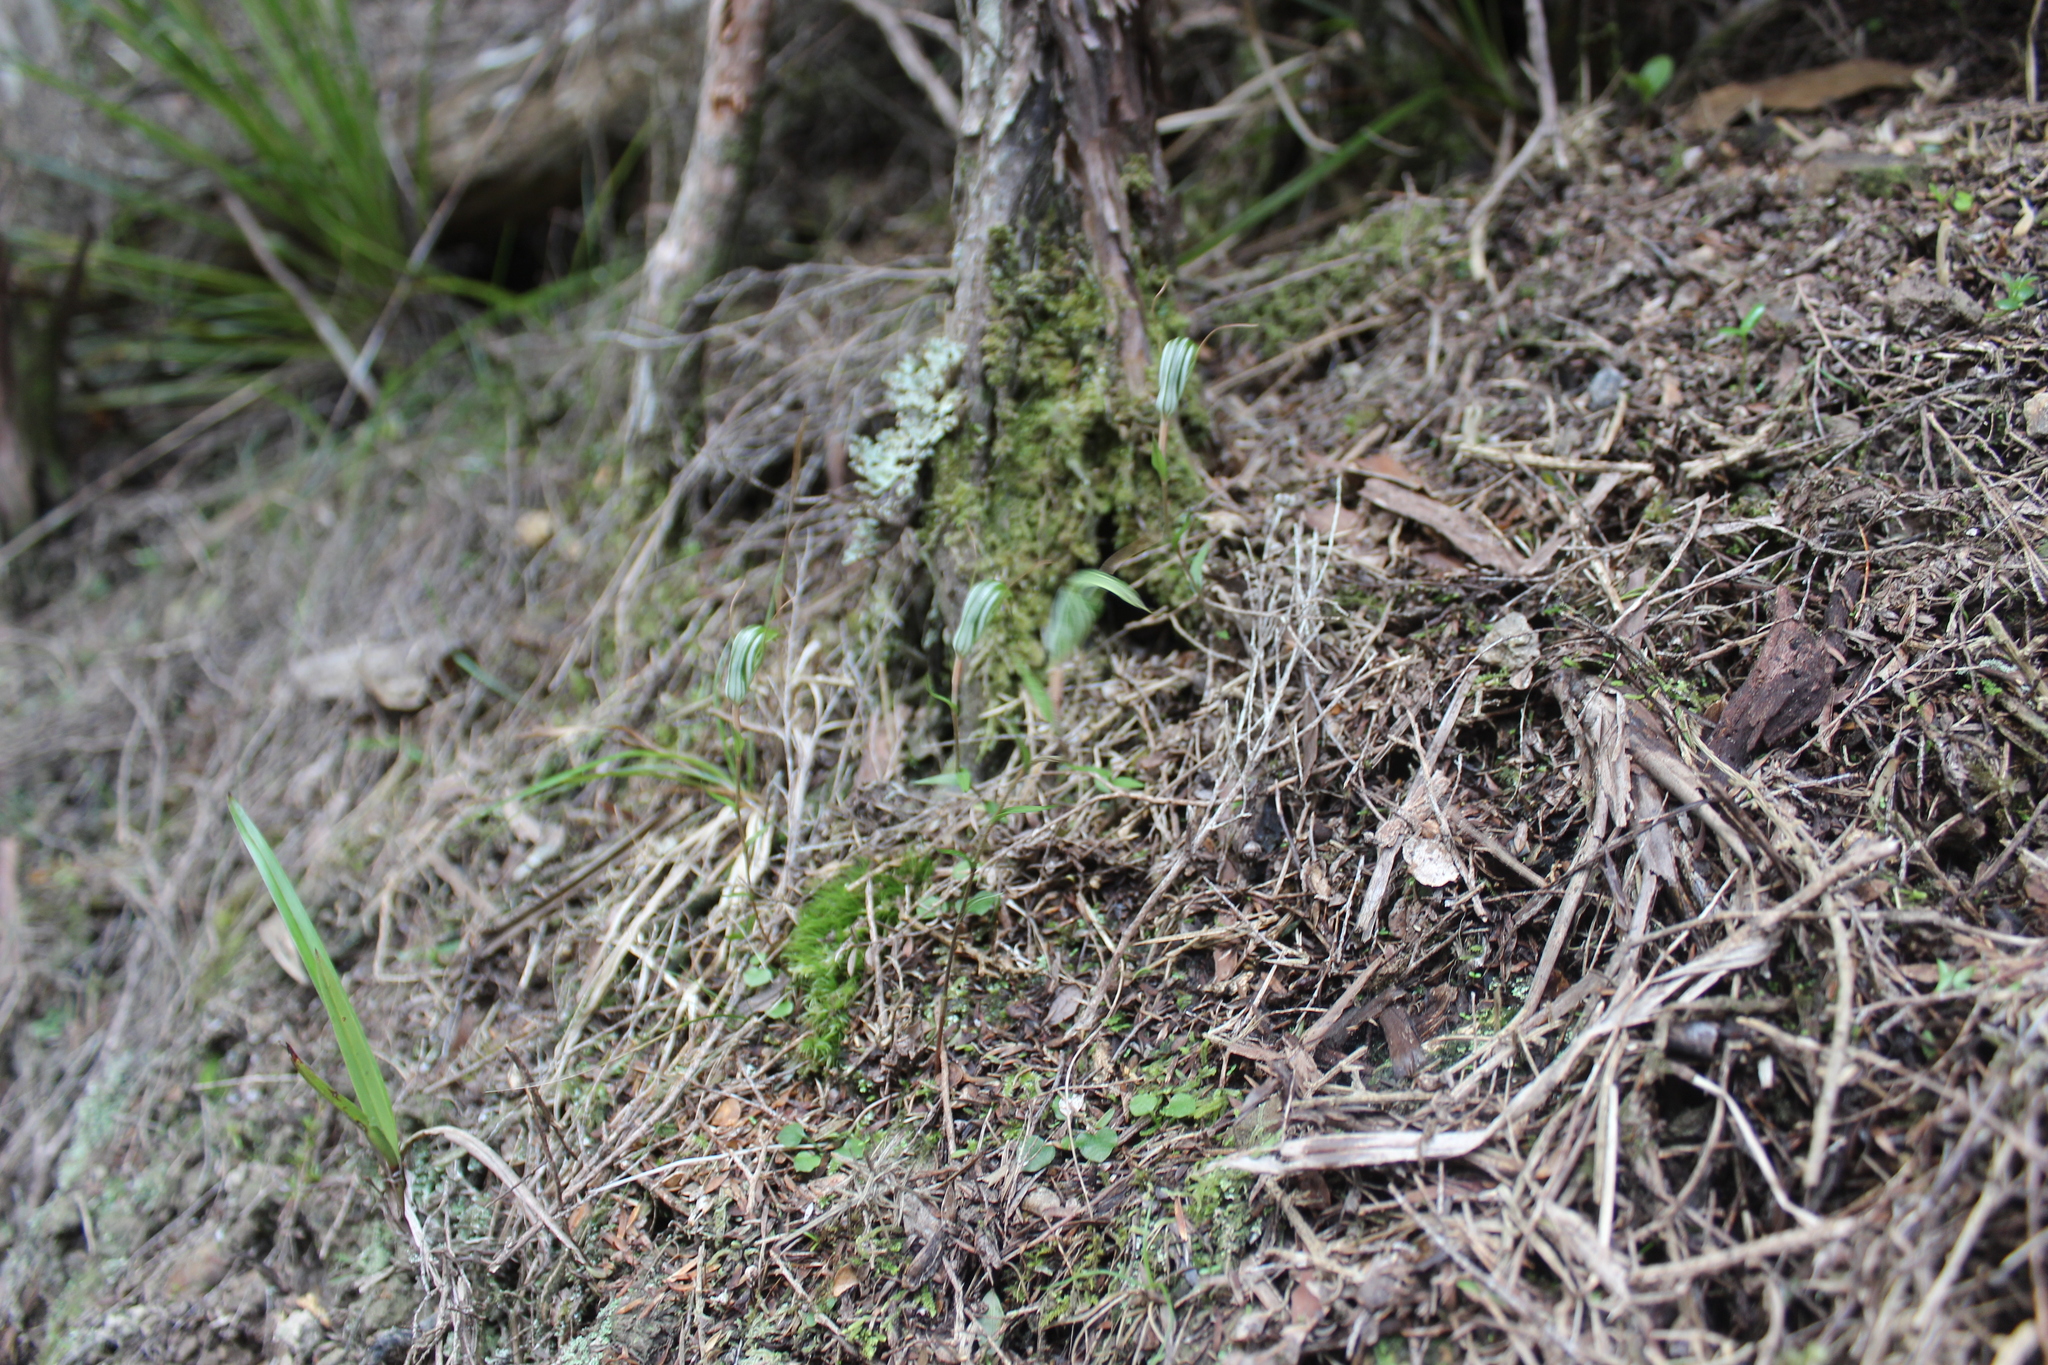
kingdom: Plantae
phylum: Tracheophyta
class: Liliopsida
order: Asparagales
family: Orchidaceae
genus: Pterostylis
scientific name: Pterostylis alobula
